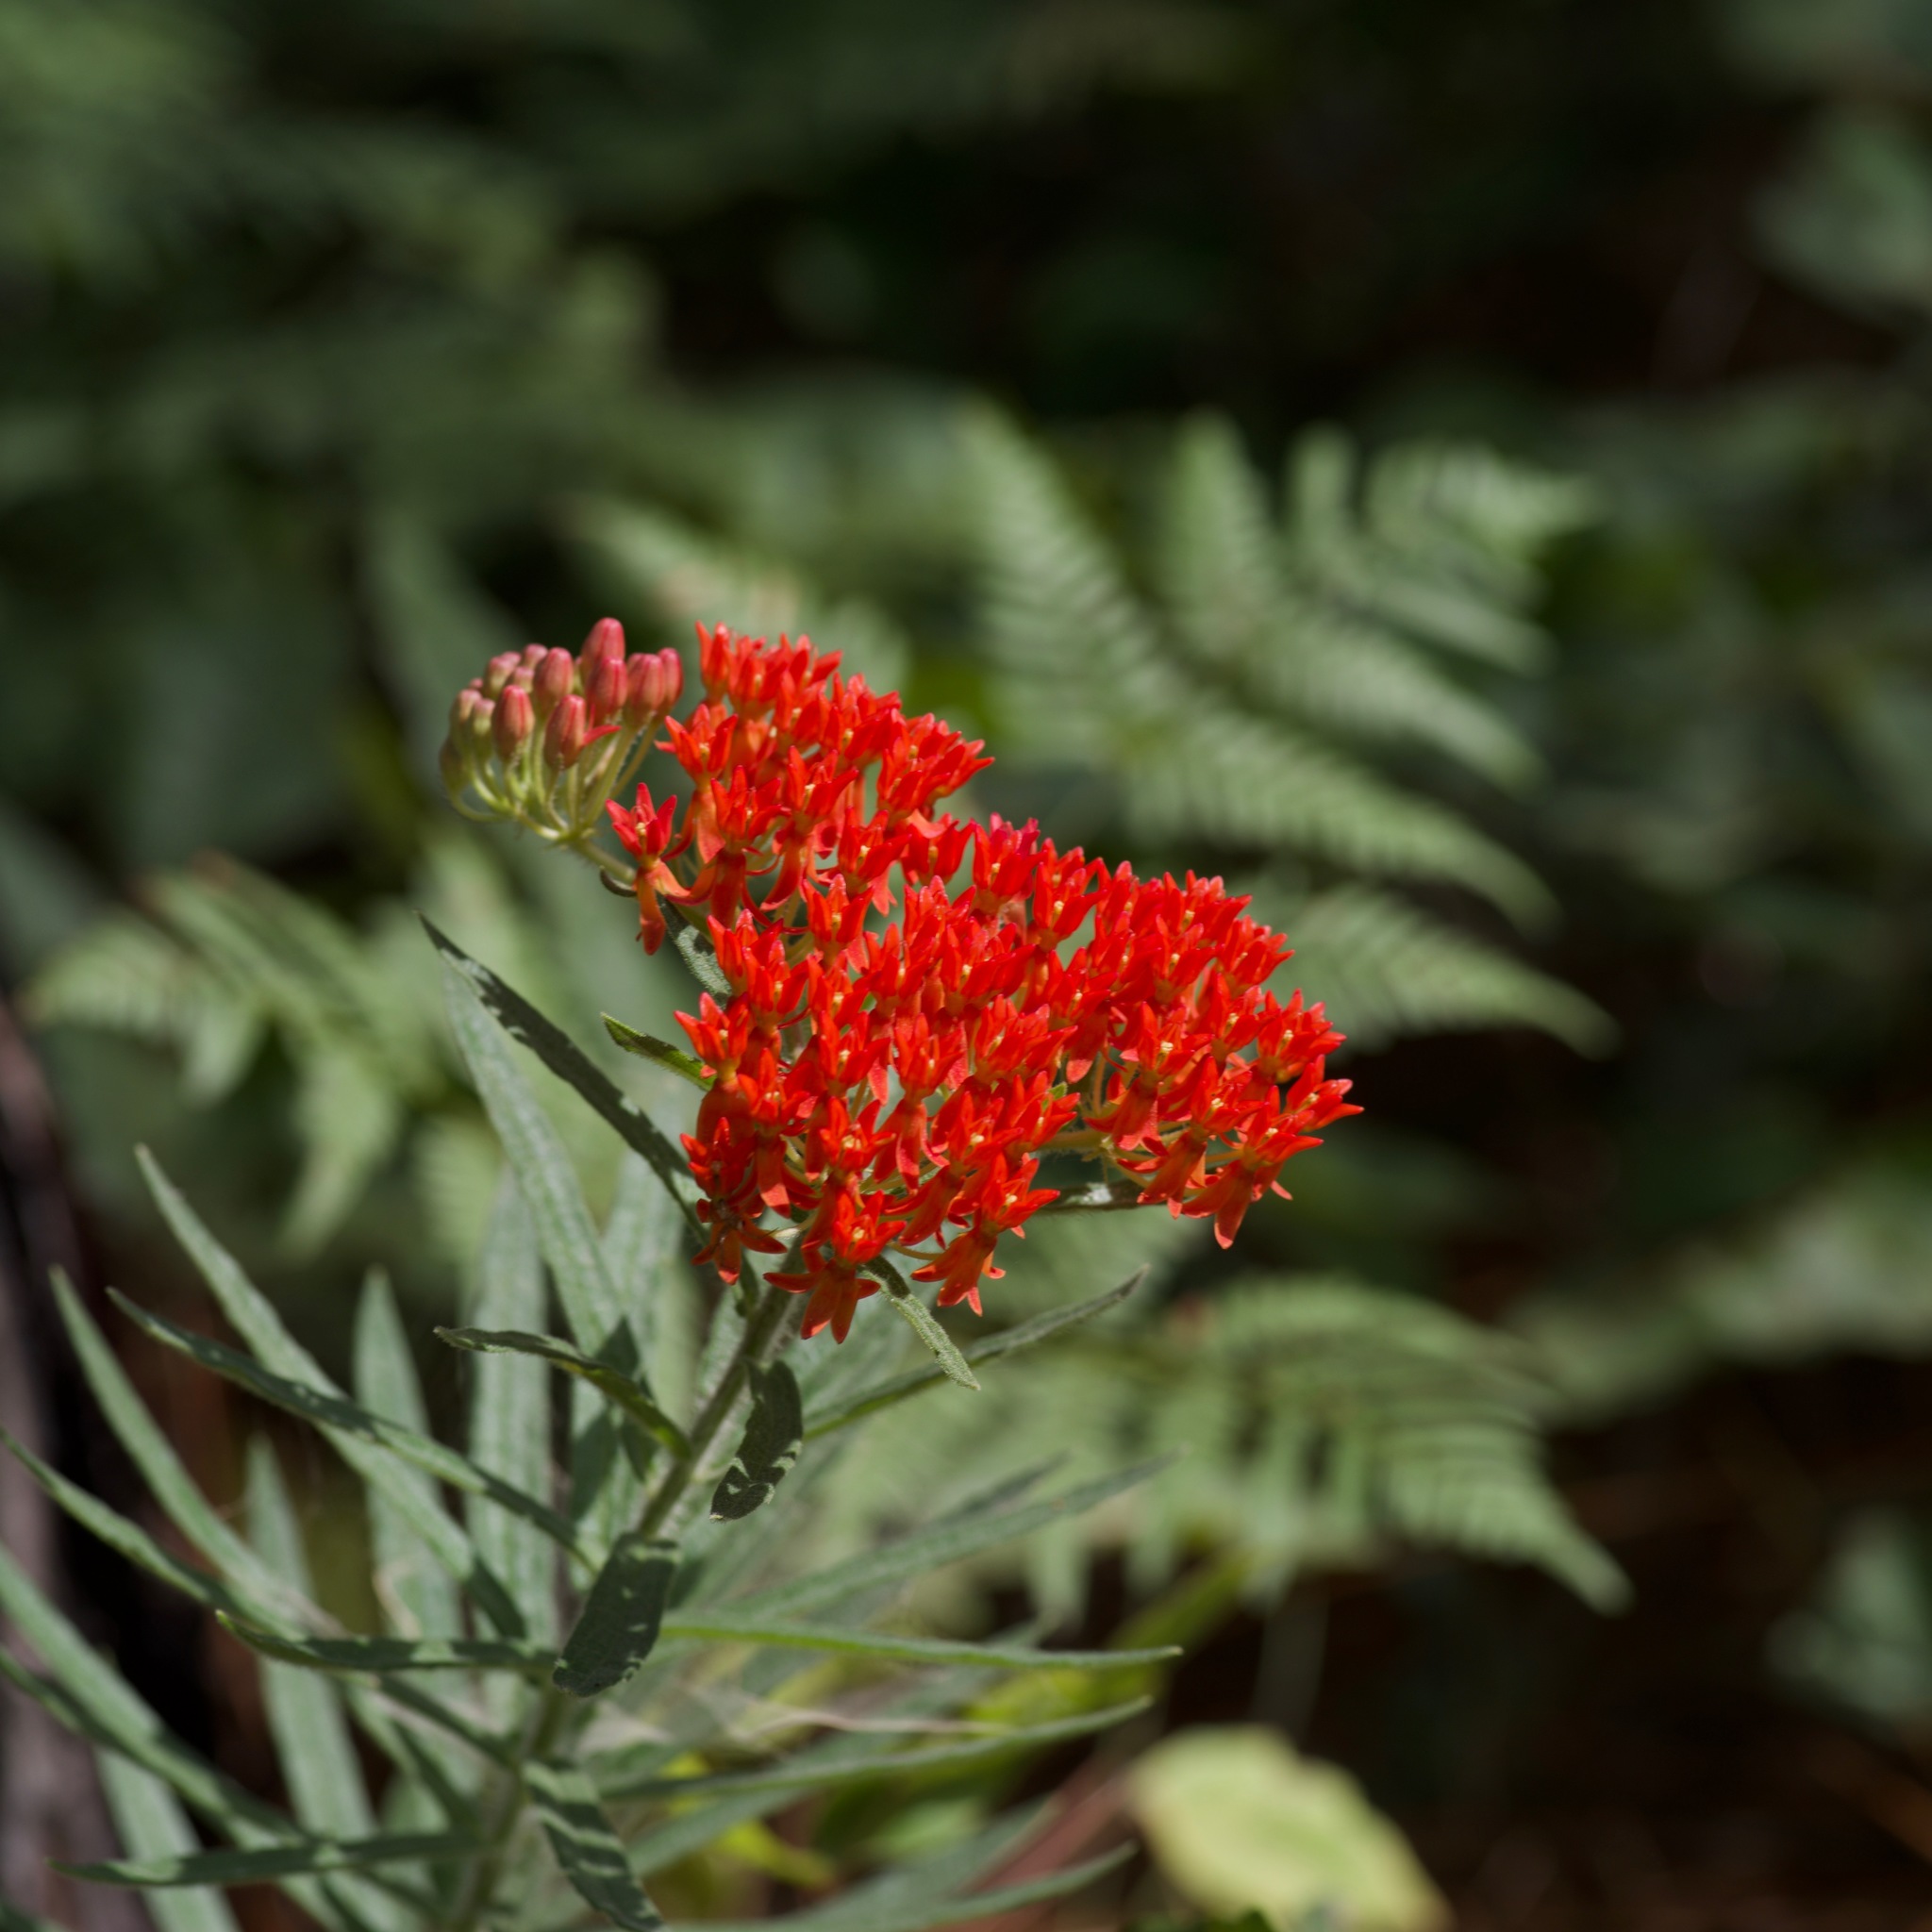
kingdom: Plantae
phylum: Tracheophyta
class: Magnoliopsida
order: Gentianales
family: Apocynaceae
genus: Asclepias
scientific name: Asclepias tuberosa
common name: Butterfly milkweed
